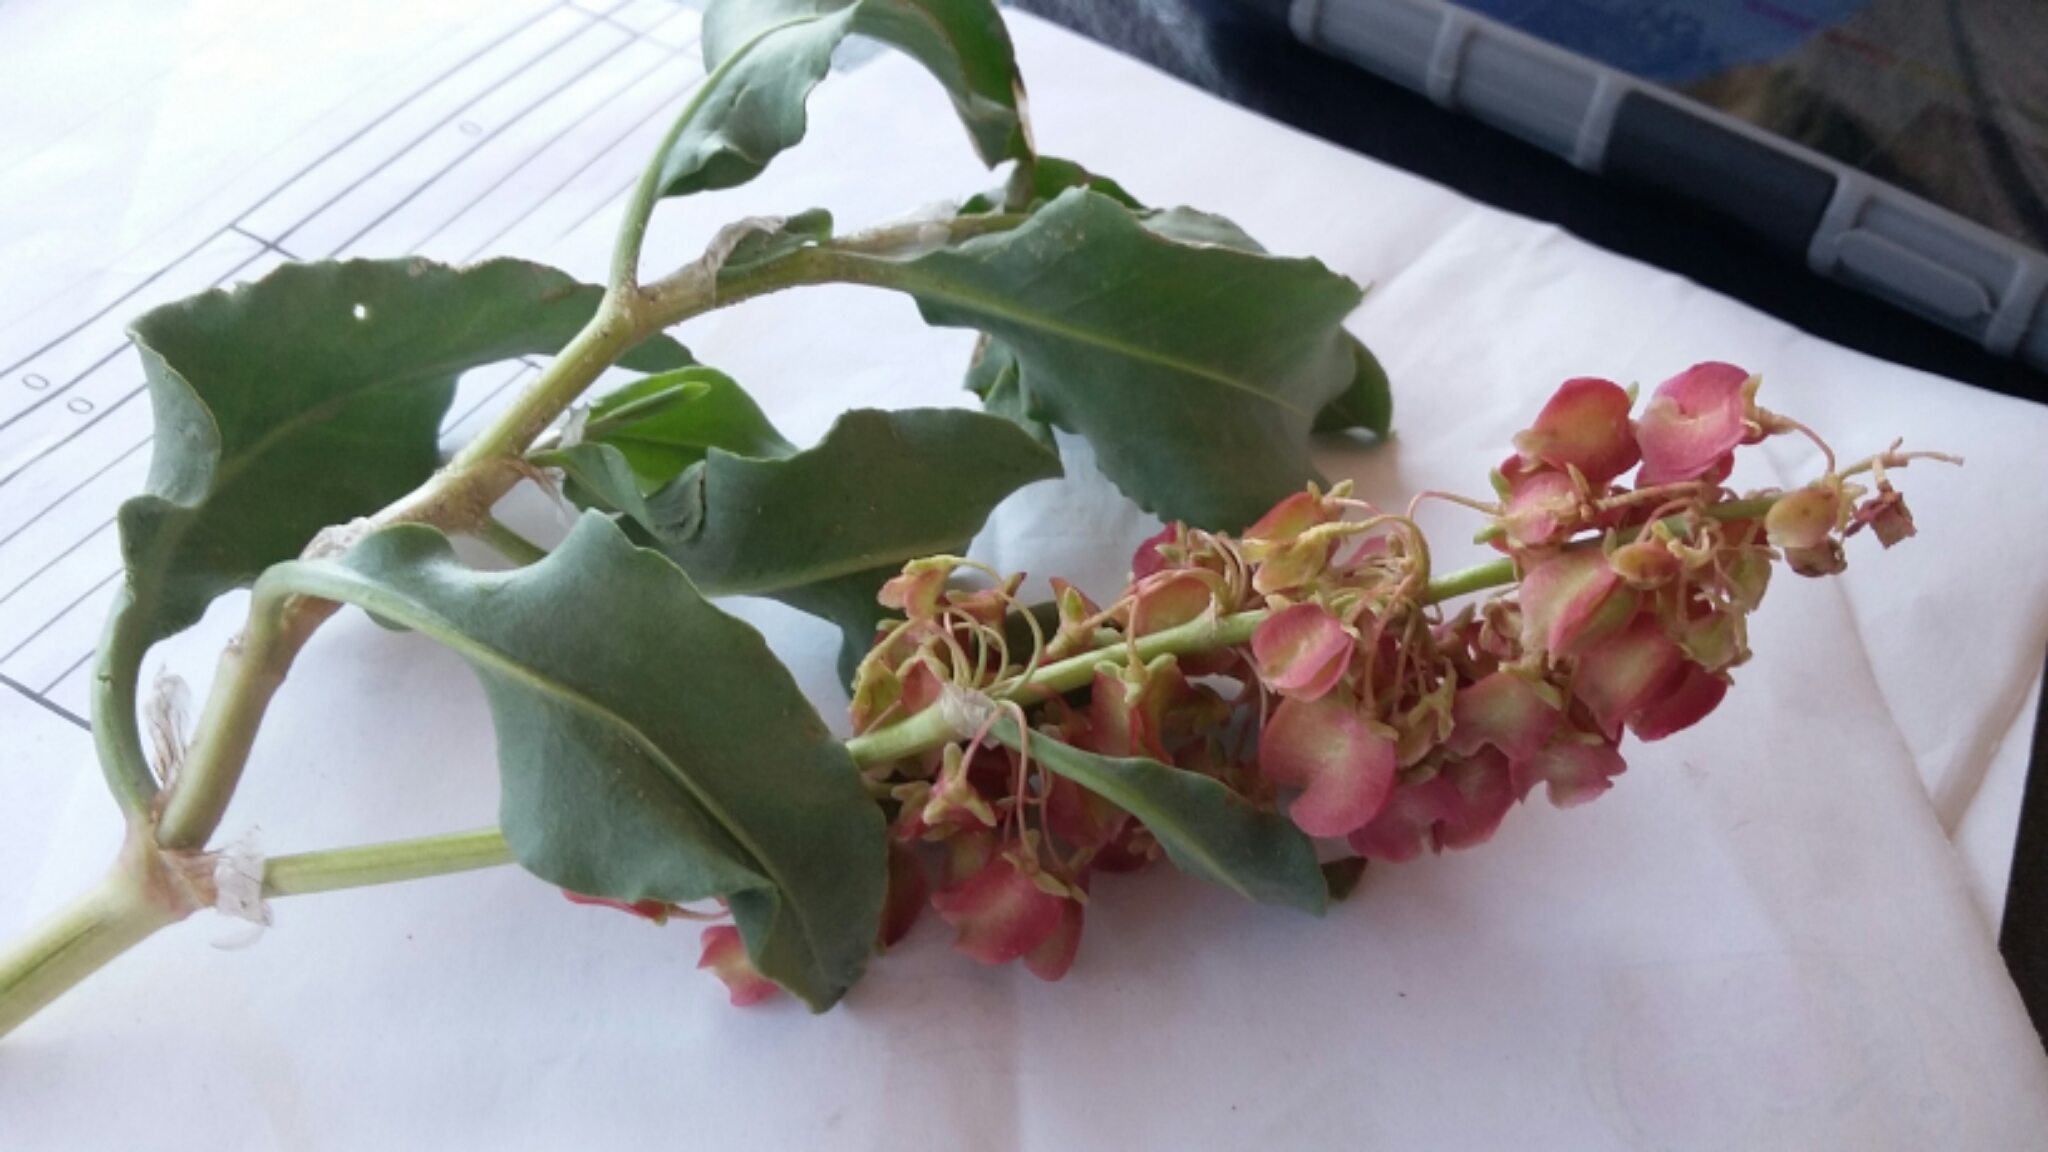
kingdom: Plantae
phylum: Tracheophyta
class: Magnoliopsida
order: Caryophyllales
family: Polygonaceae
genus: Rumex
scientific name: Rumex venosus
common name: Winged dock
